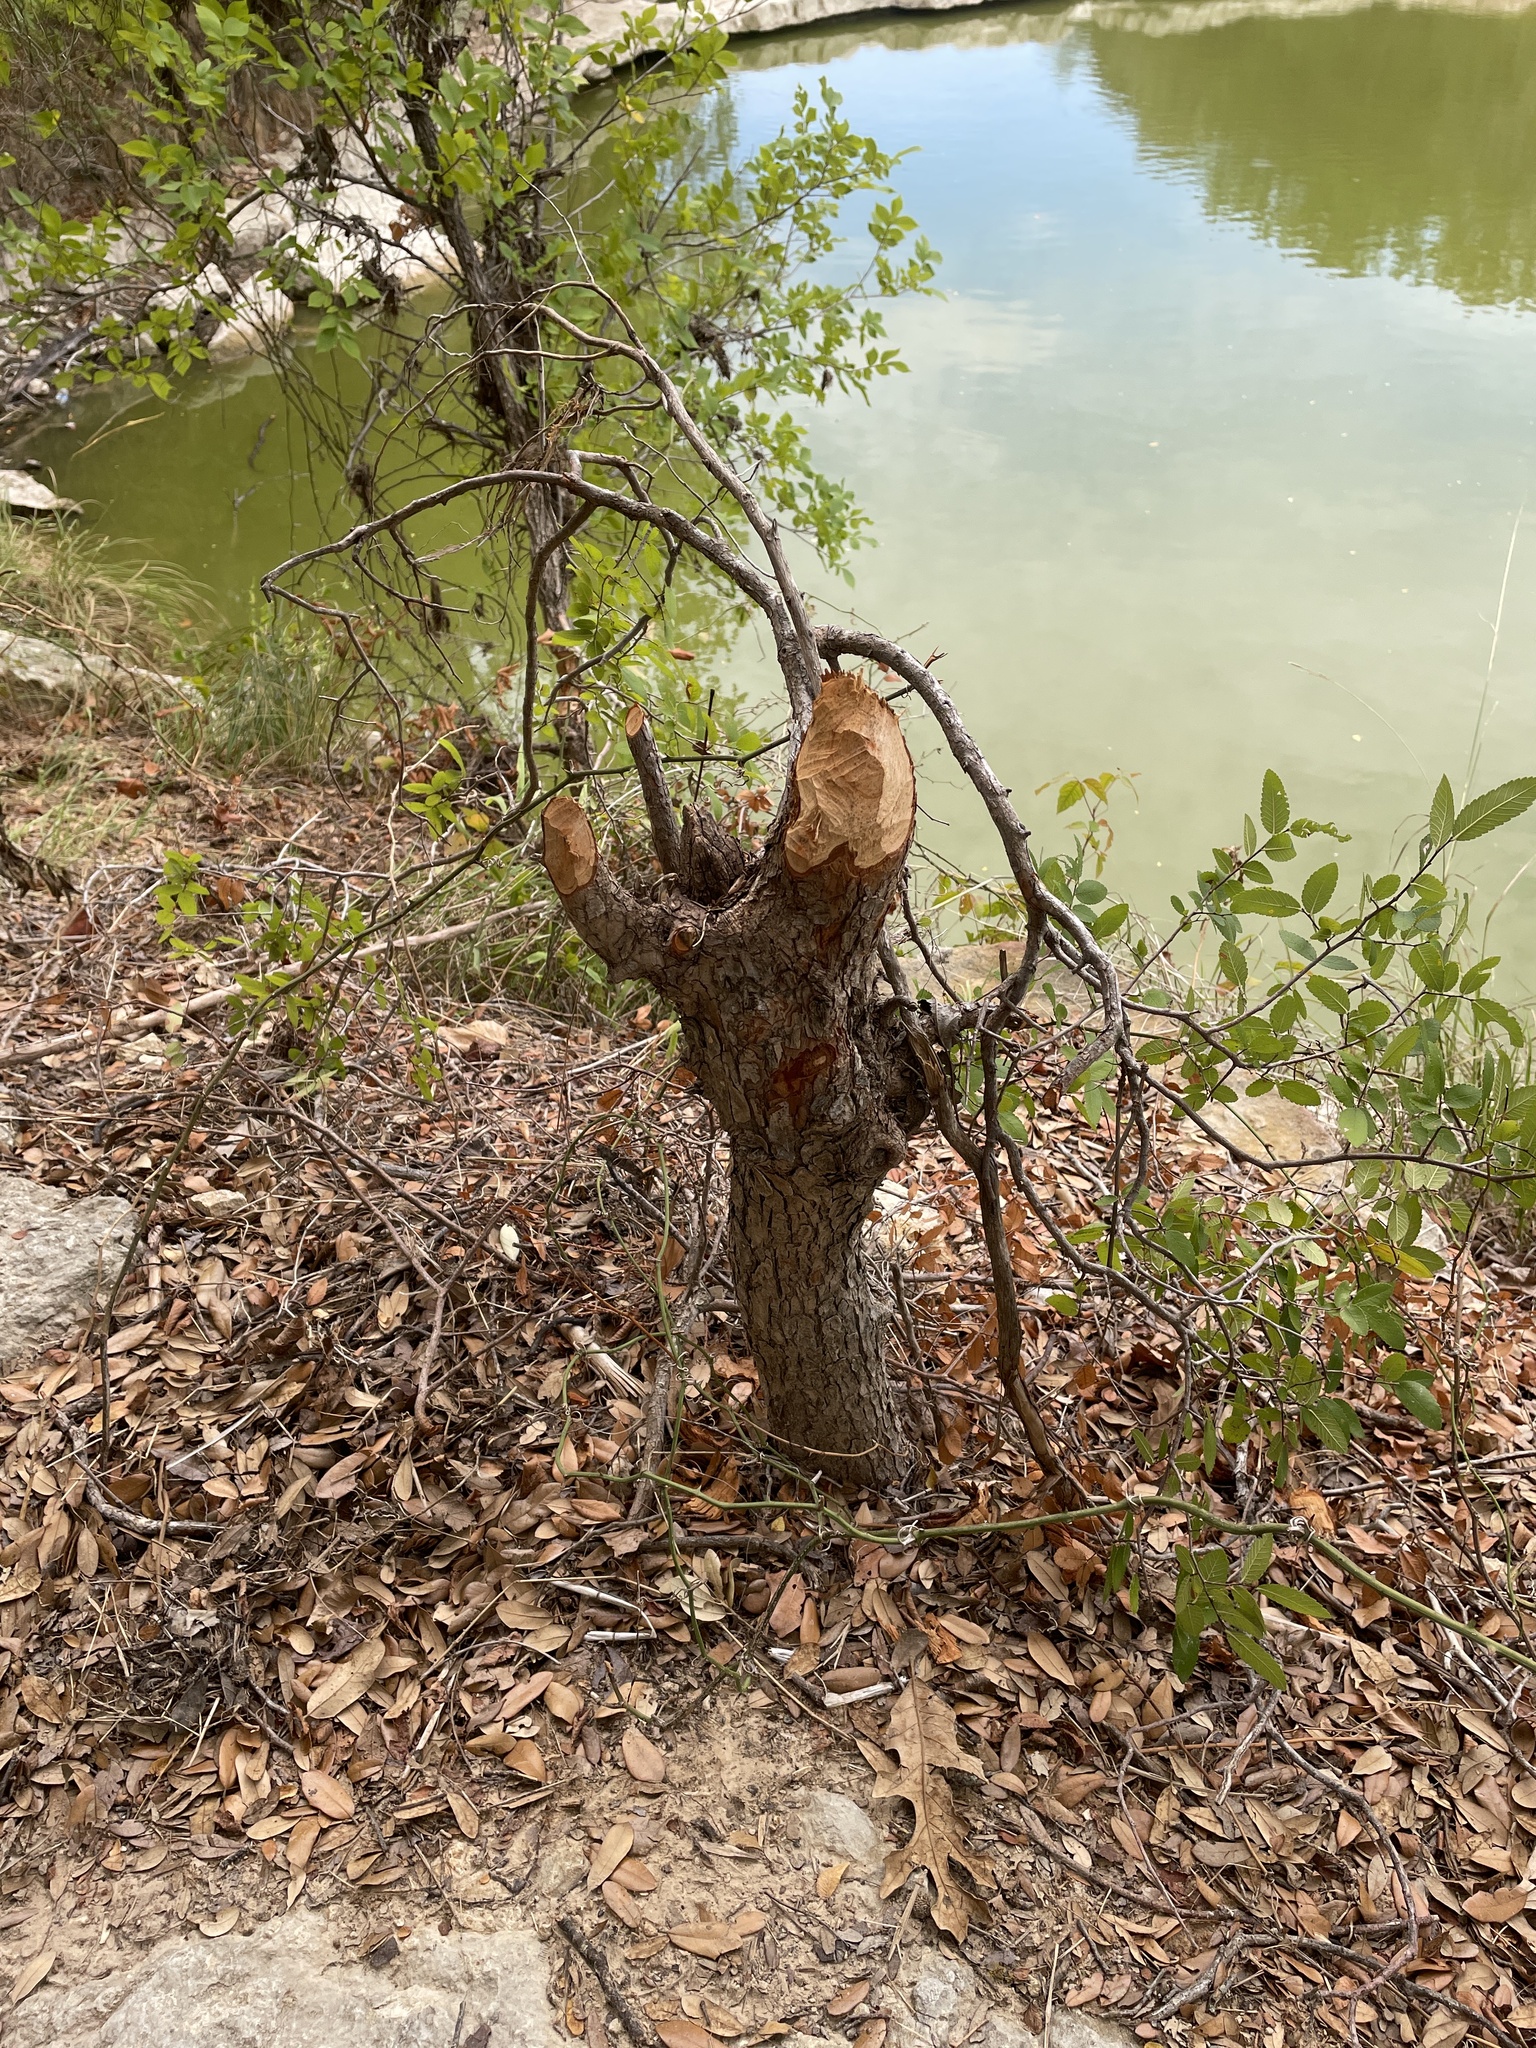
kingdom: Animalia
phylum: Chordata
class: Mammalia
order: Rodentia
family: Castoridae
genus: Castor
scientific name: Castor canadensis
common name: American beaver
